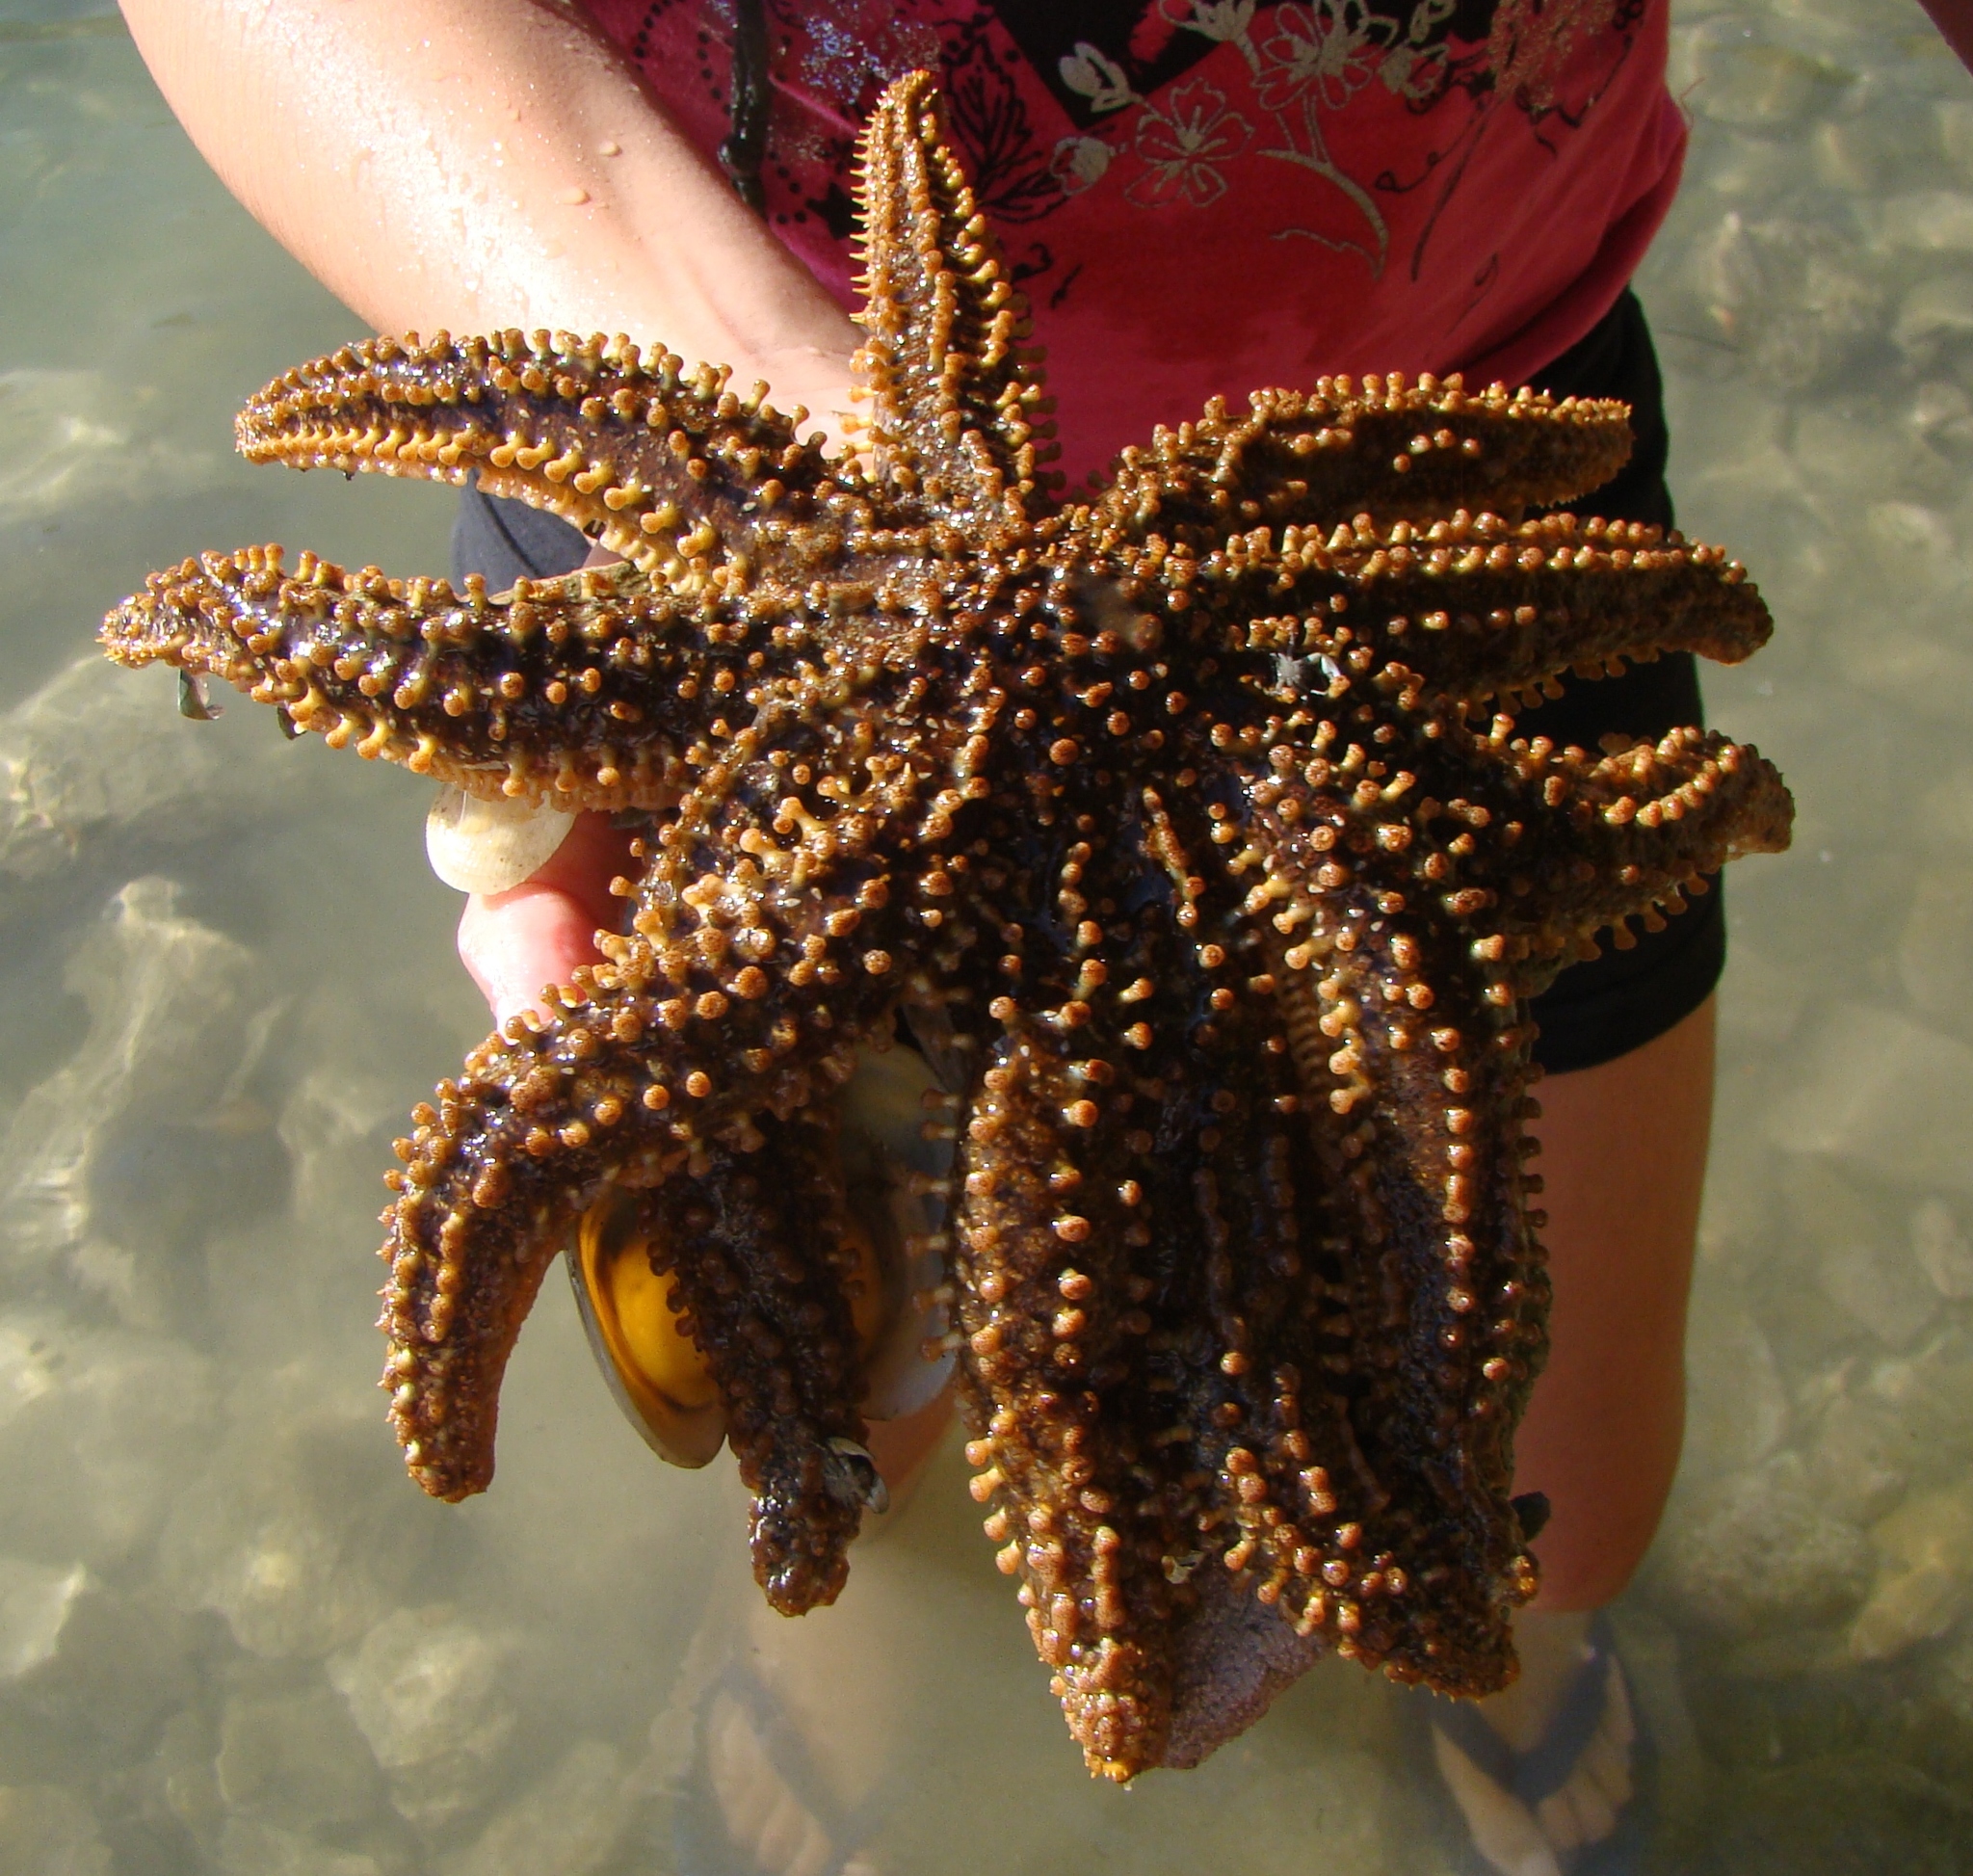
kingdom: Animalia
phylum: Echinodermata
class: Asteroidea
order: Forcipulatida
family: Asteriidae
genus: Coscinasterias
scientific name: Coscinasterias muricata
